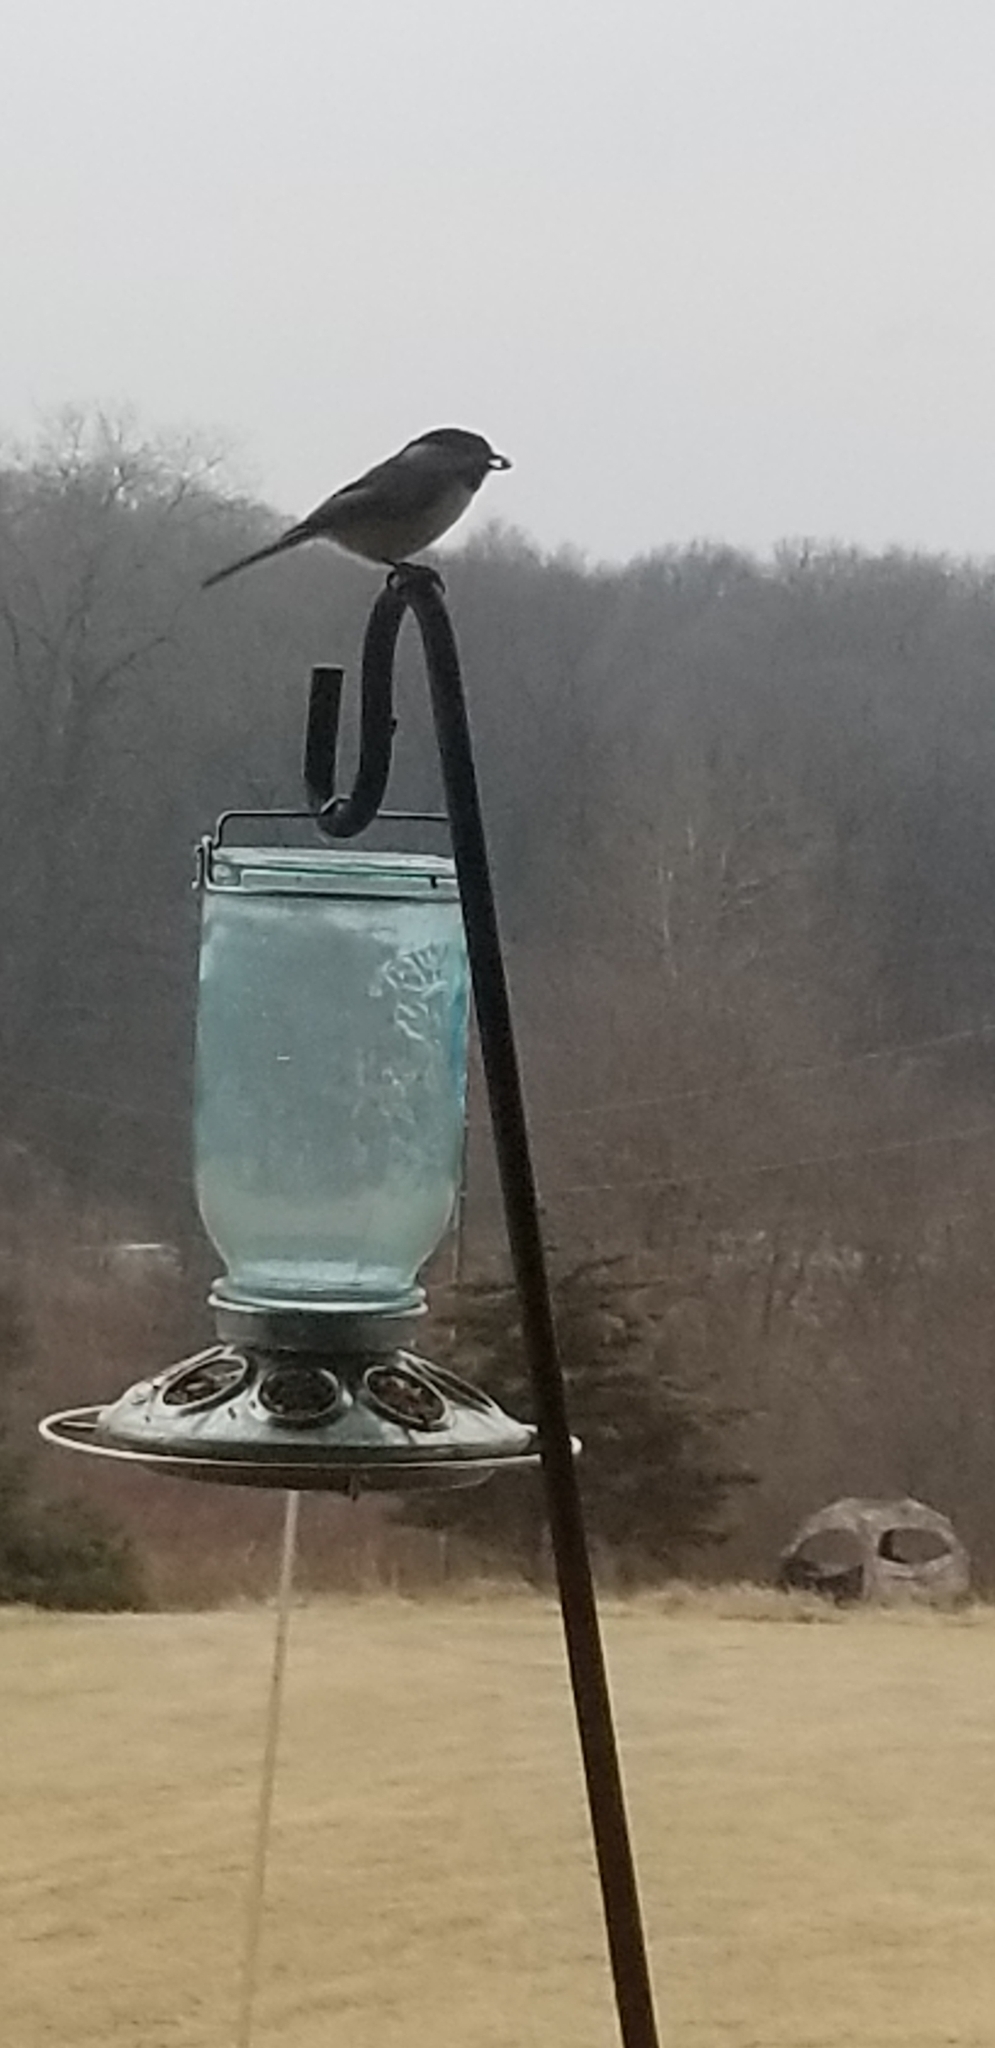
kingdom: Animalia
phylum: Chordata
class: Aves
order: Passeriformes
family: Paridae
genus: Poecile
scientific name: Poecile atricapillus
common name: Black-capped chickadee
